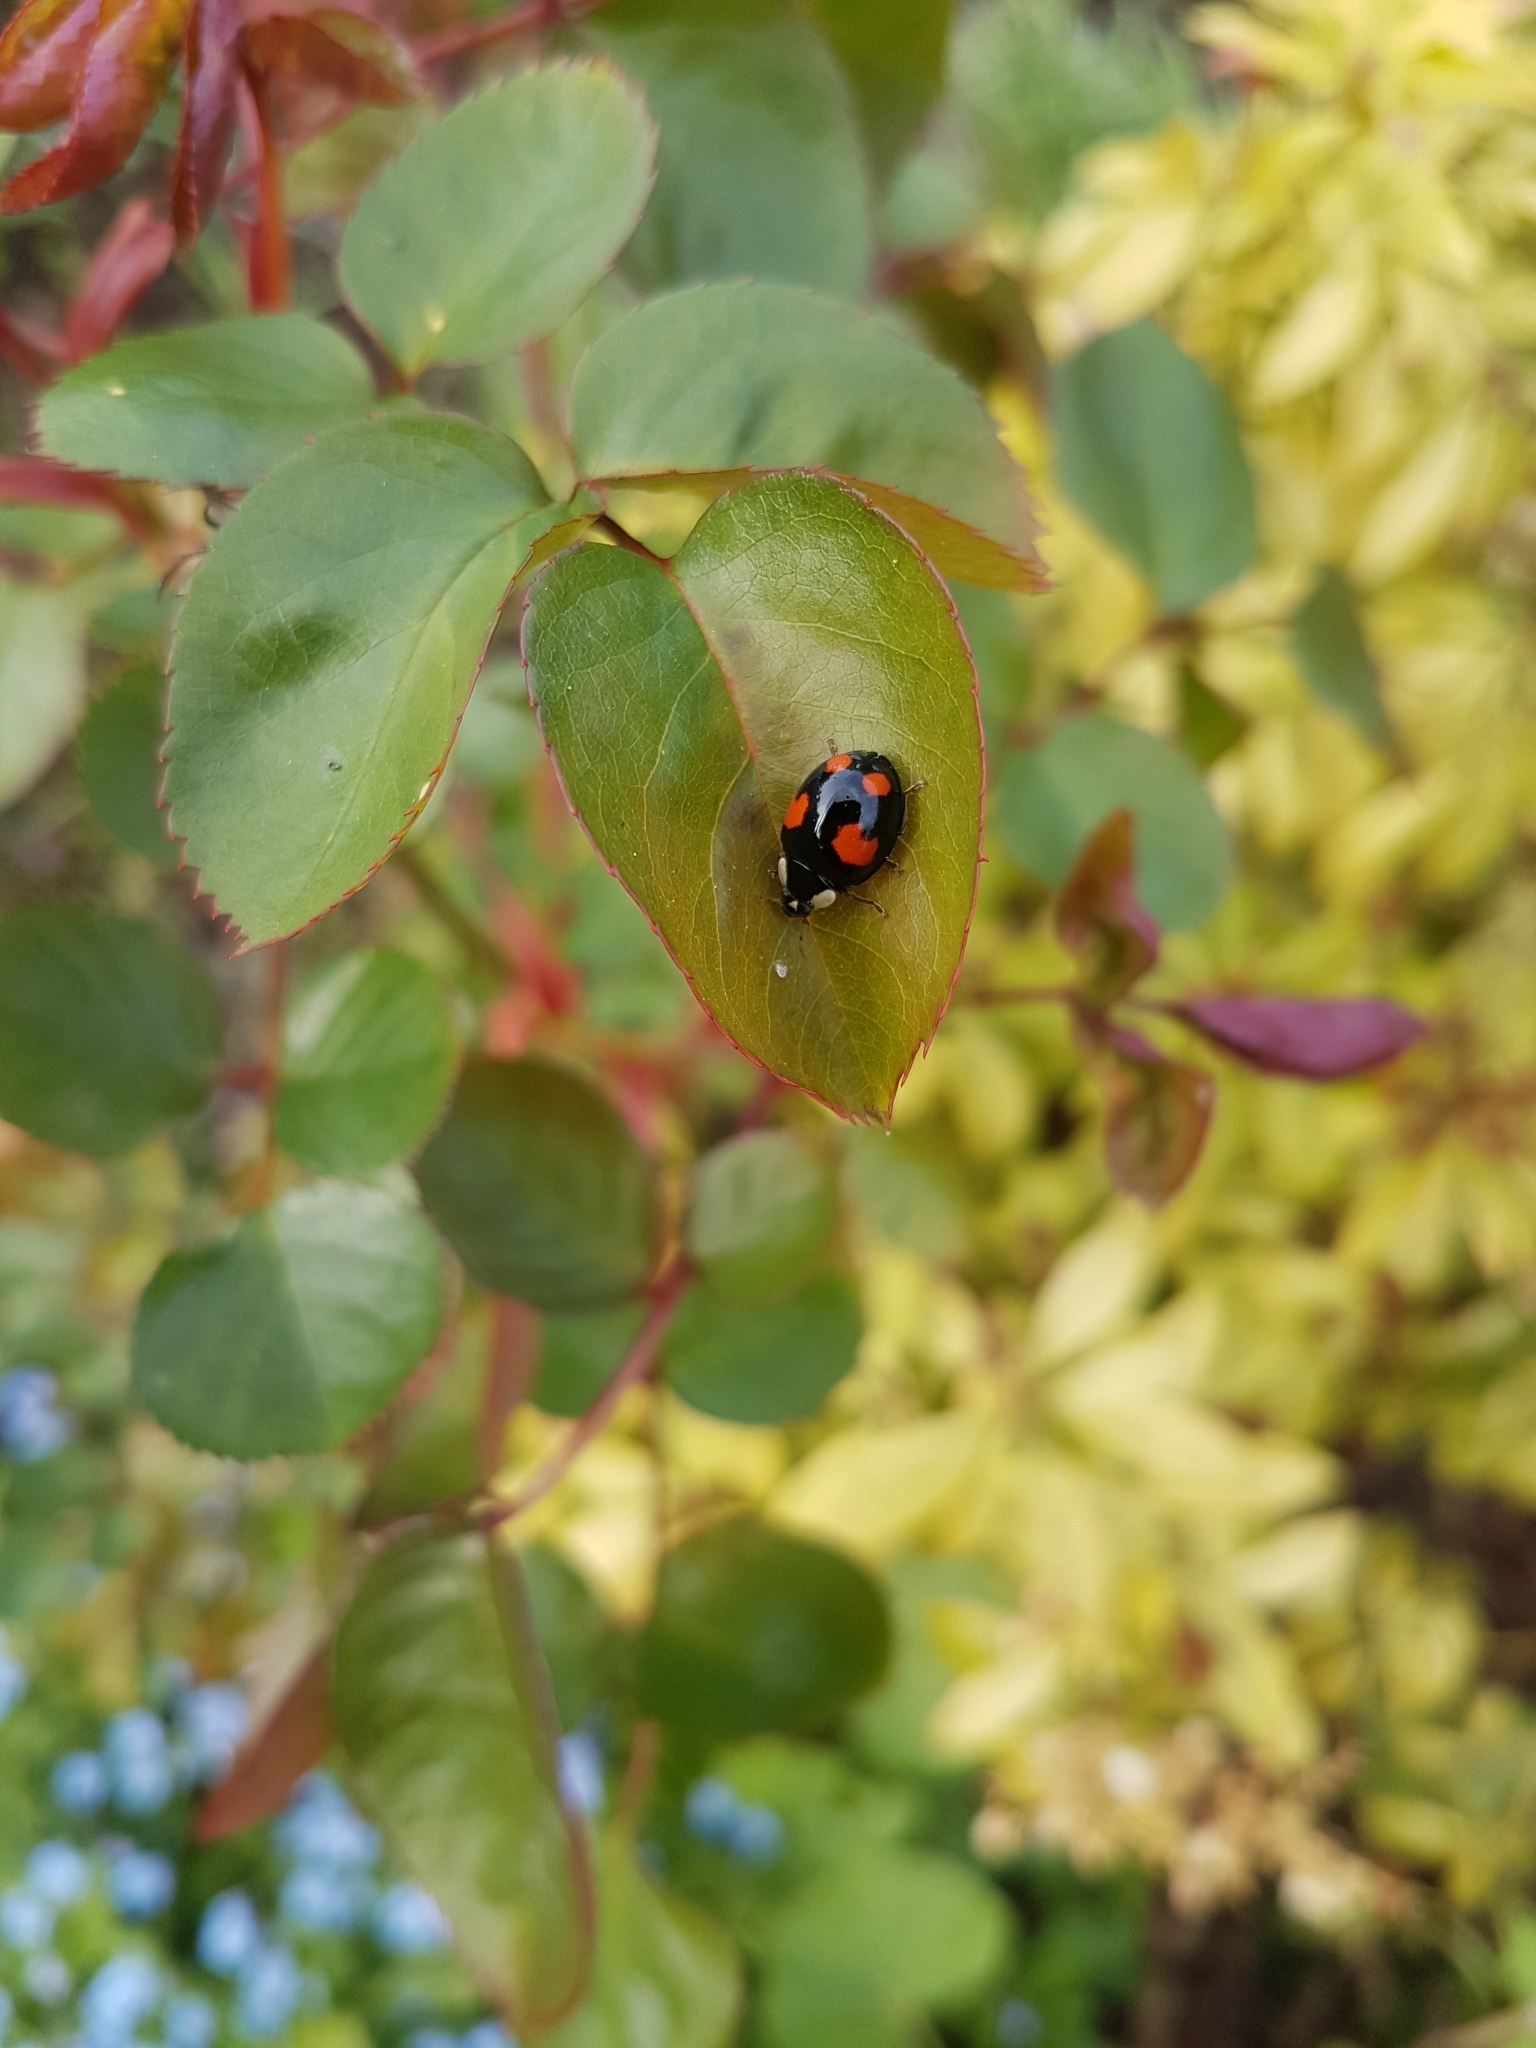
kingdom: Animalia
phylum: Arthropoda
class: Insecta
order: Coleoptera
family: Coccinellidae
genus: Harmonia
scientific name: Harmonia axyridis
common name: Harlequin ladybird
